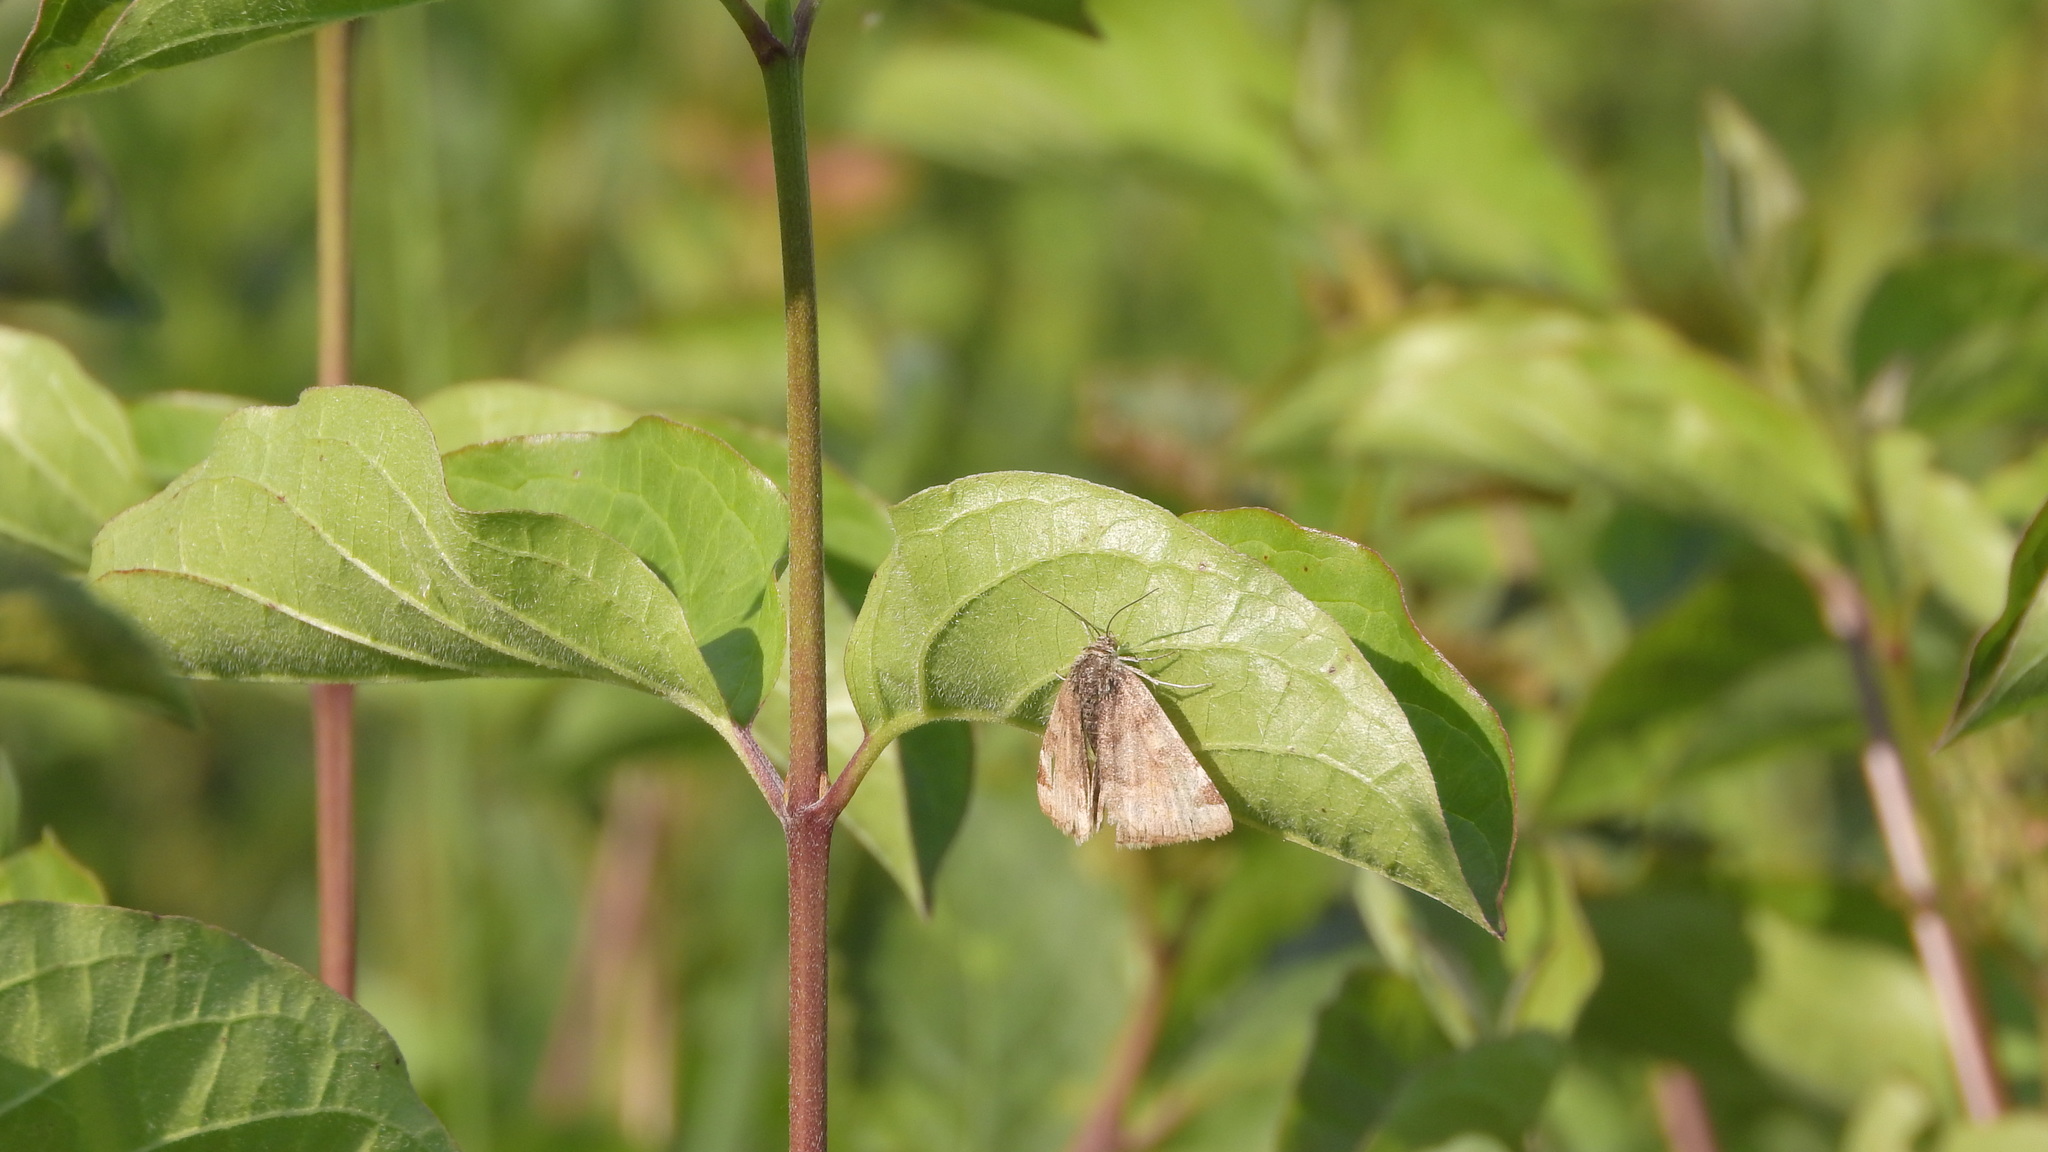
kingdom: Animalia
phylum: Arthropoda
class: Insecta
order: Lepidoptera
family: Erebidae
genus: Euclidia
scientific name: Euclidia glyphica
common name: Burnet companion
